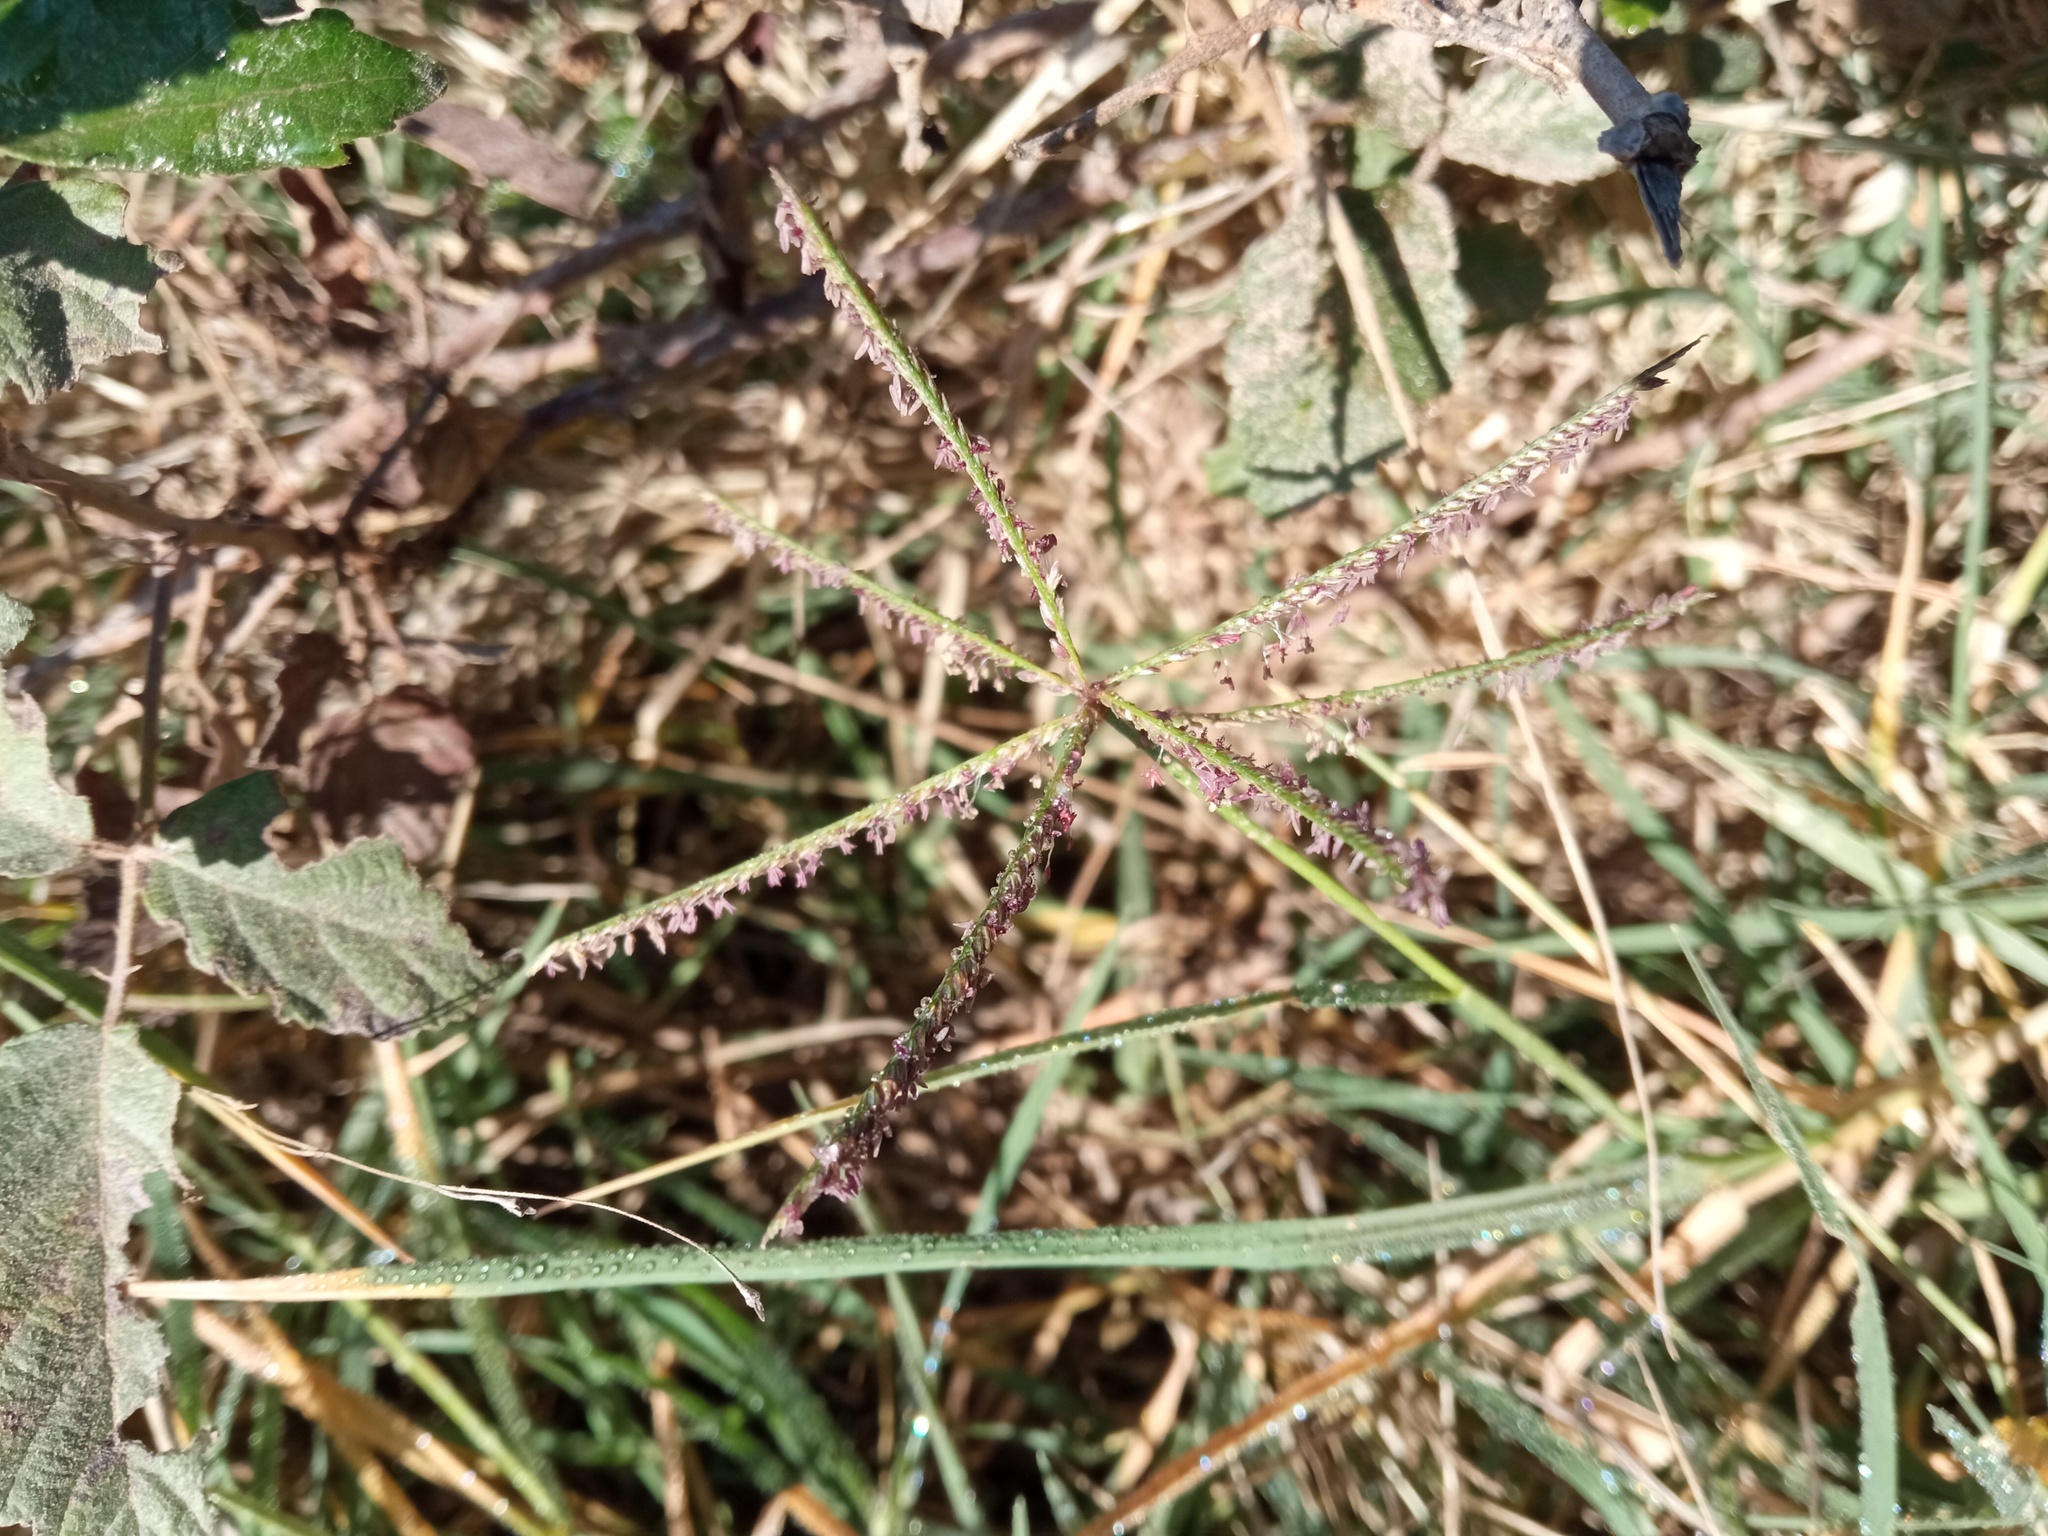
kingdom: Plantae
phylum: Tracheophyta
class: Liliopsida
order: Poales
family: Poaceae
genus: Cynodon
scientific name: Cynodon dactylon
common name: Bermuda grass
